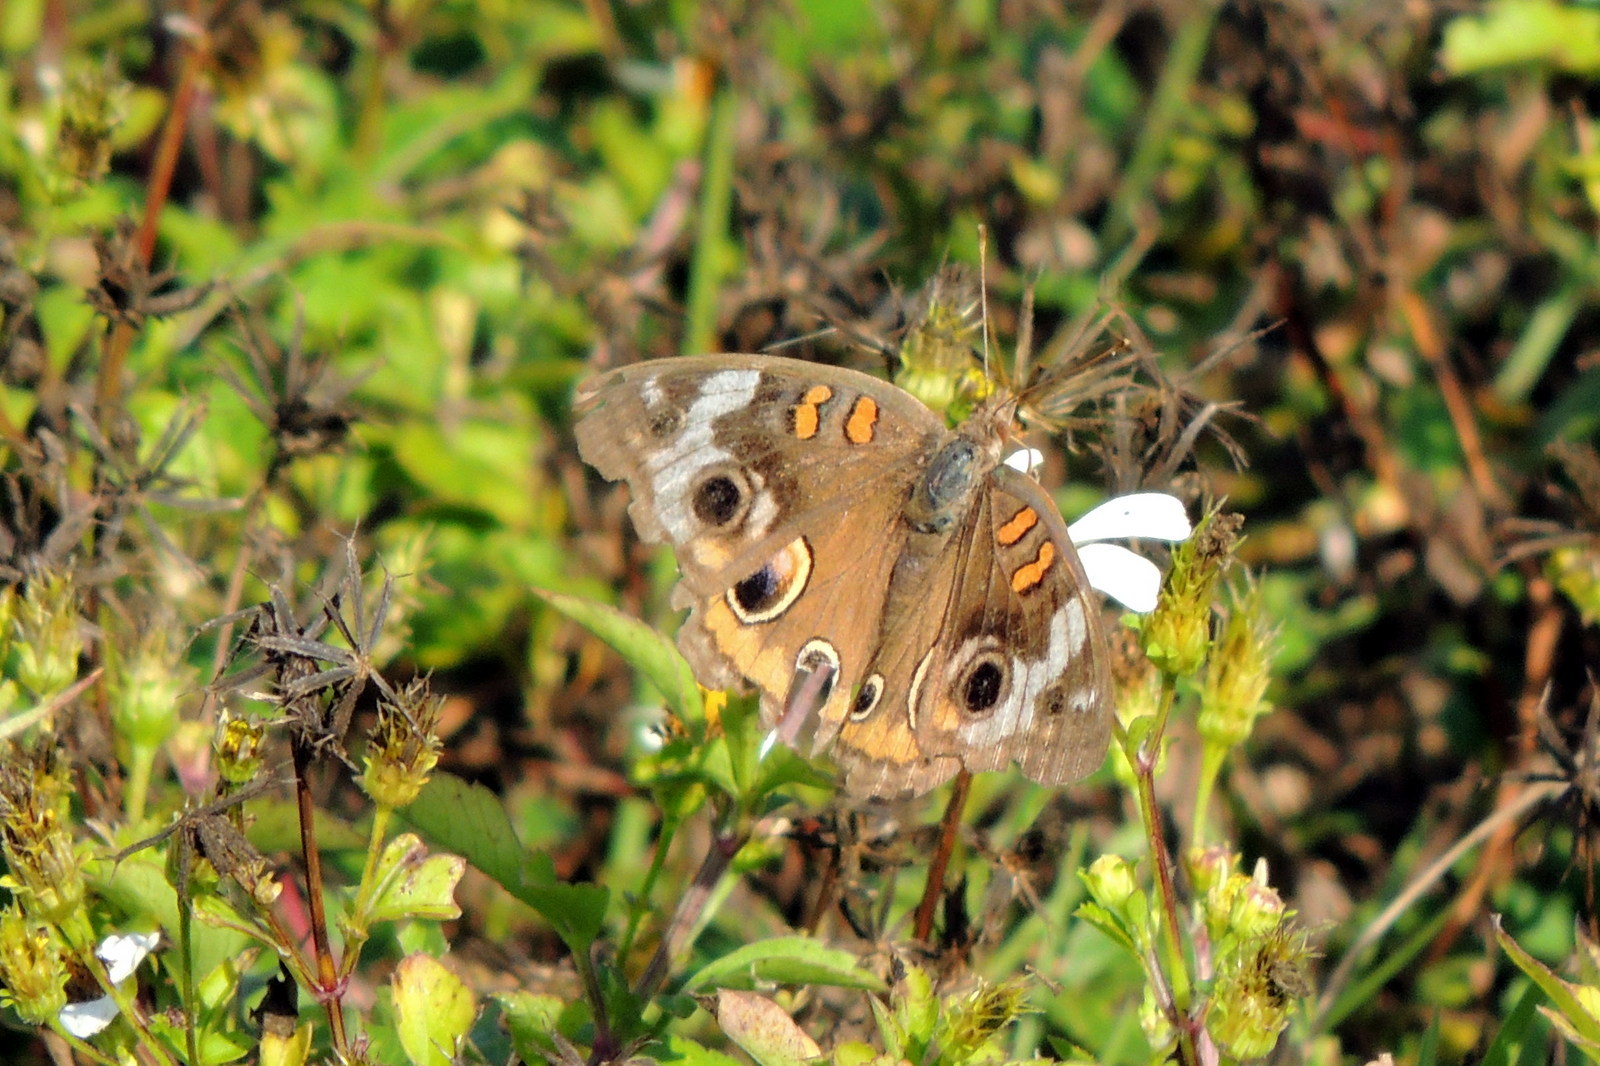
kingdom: Animalia
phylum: Arthropoda
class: Insecta
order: Lepidoptera
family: Nymphalidae
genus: Junonia
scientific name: Junonia coenia
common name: Common buckeye
